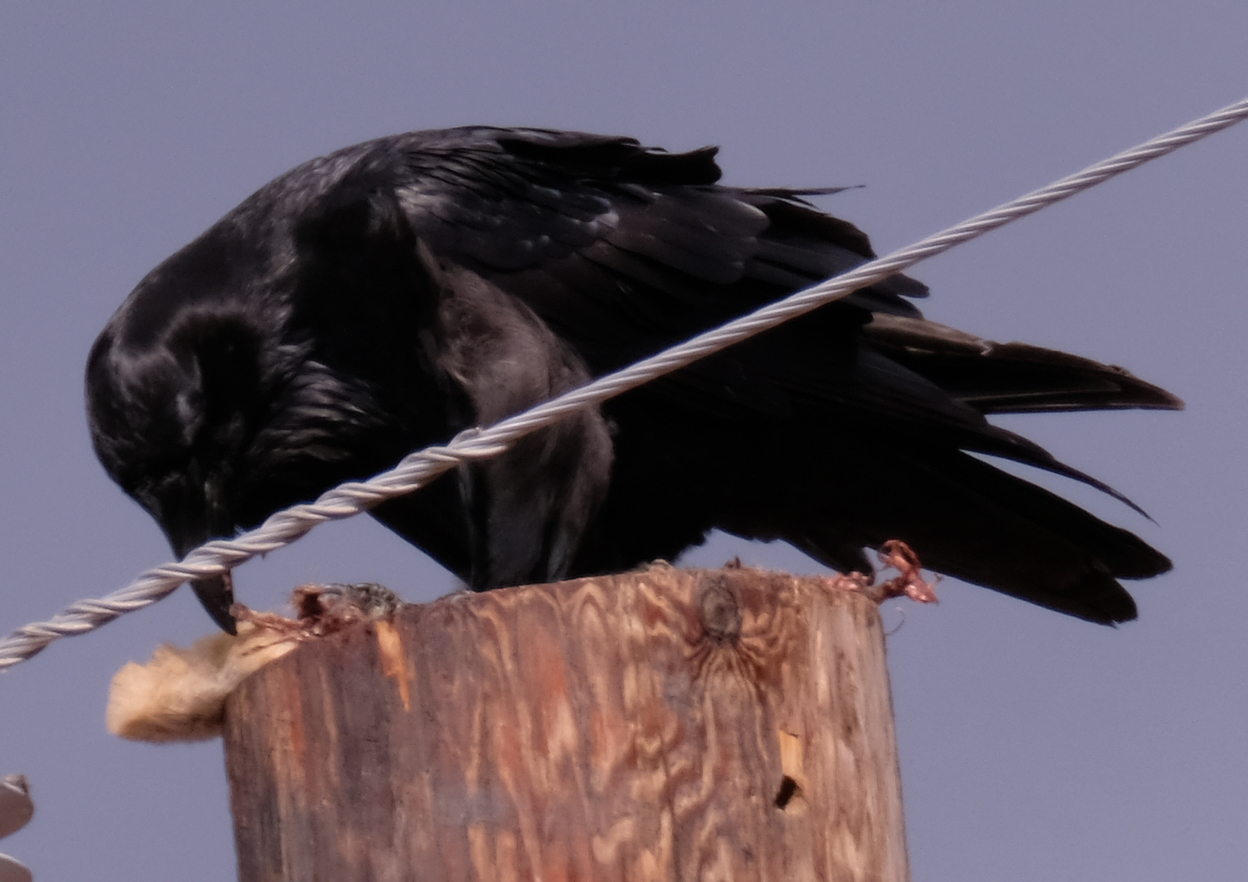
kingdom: Animalia
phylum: Chordata
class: Aves
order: Passeriformes
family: Corvidae
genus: Corvus
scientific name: Corvus corax
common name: Common raven
